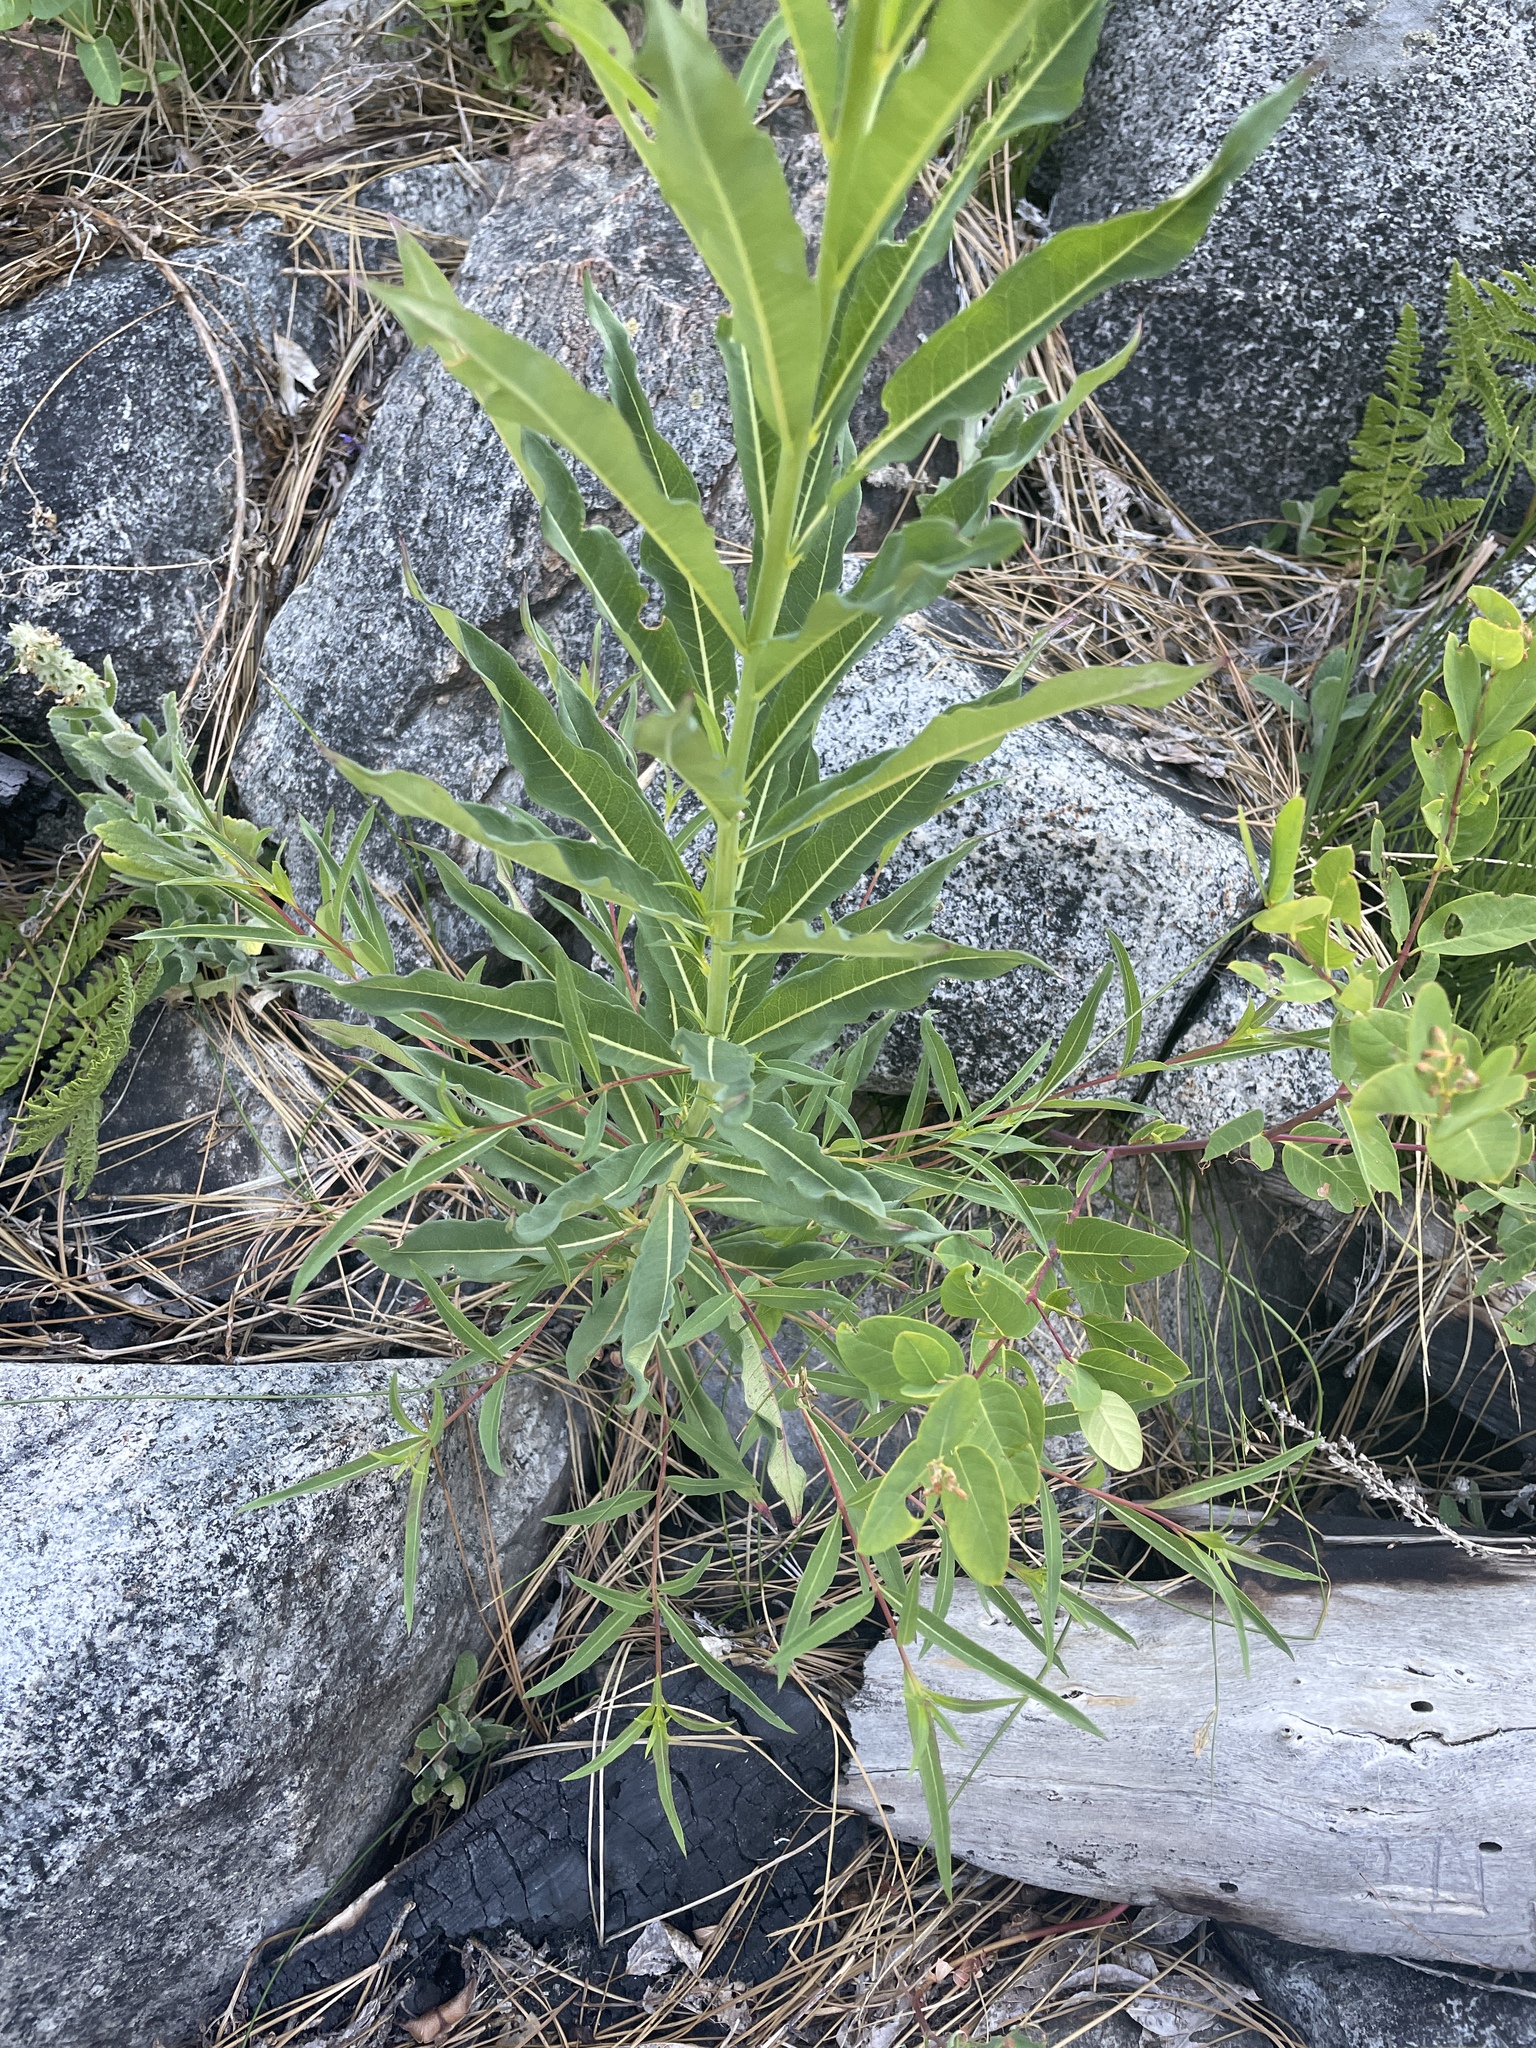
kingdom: Plantae
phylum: Tracheophyta
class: Magnoliopsida
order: Myrtales
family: Onagraceae
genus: Chamaenerion
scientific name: Chamaenerion angustifolium
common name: Fireweed
